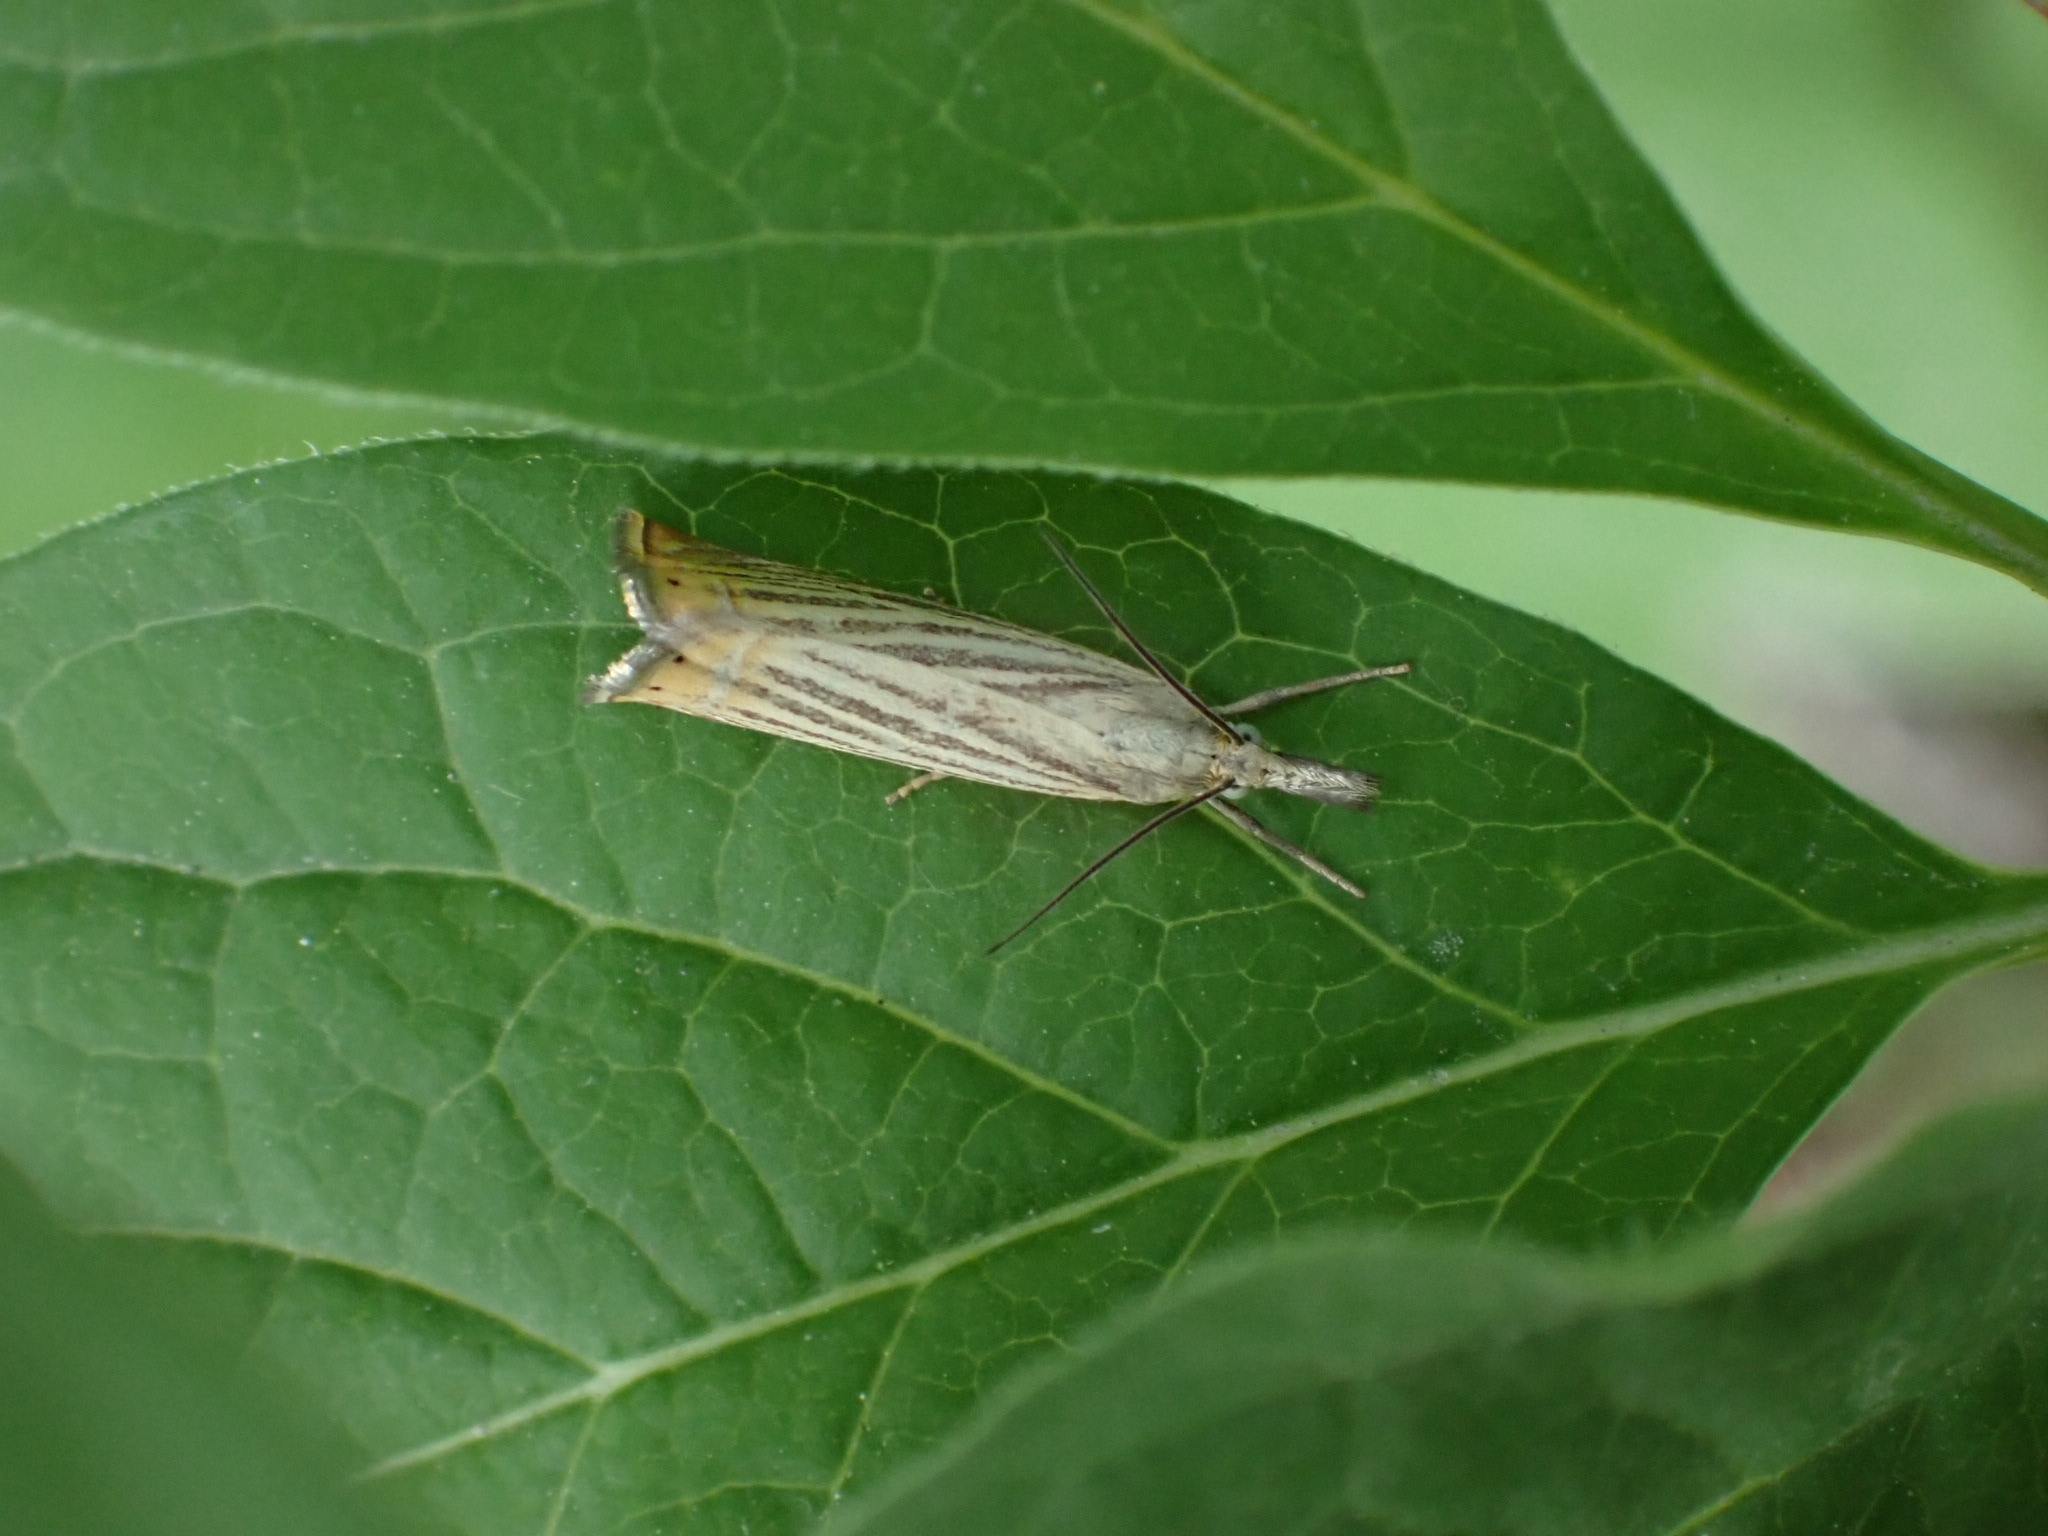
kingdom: Animalia
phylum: Arthropoda
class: Insecta
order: Lepidoptera
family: Crambidae
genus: Chrysoteuchia
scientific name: Chrysoteuchia culmella
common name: Garden grass-veneer
